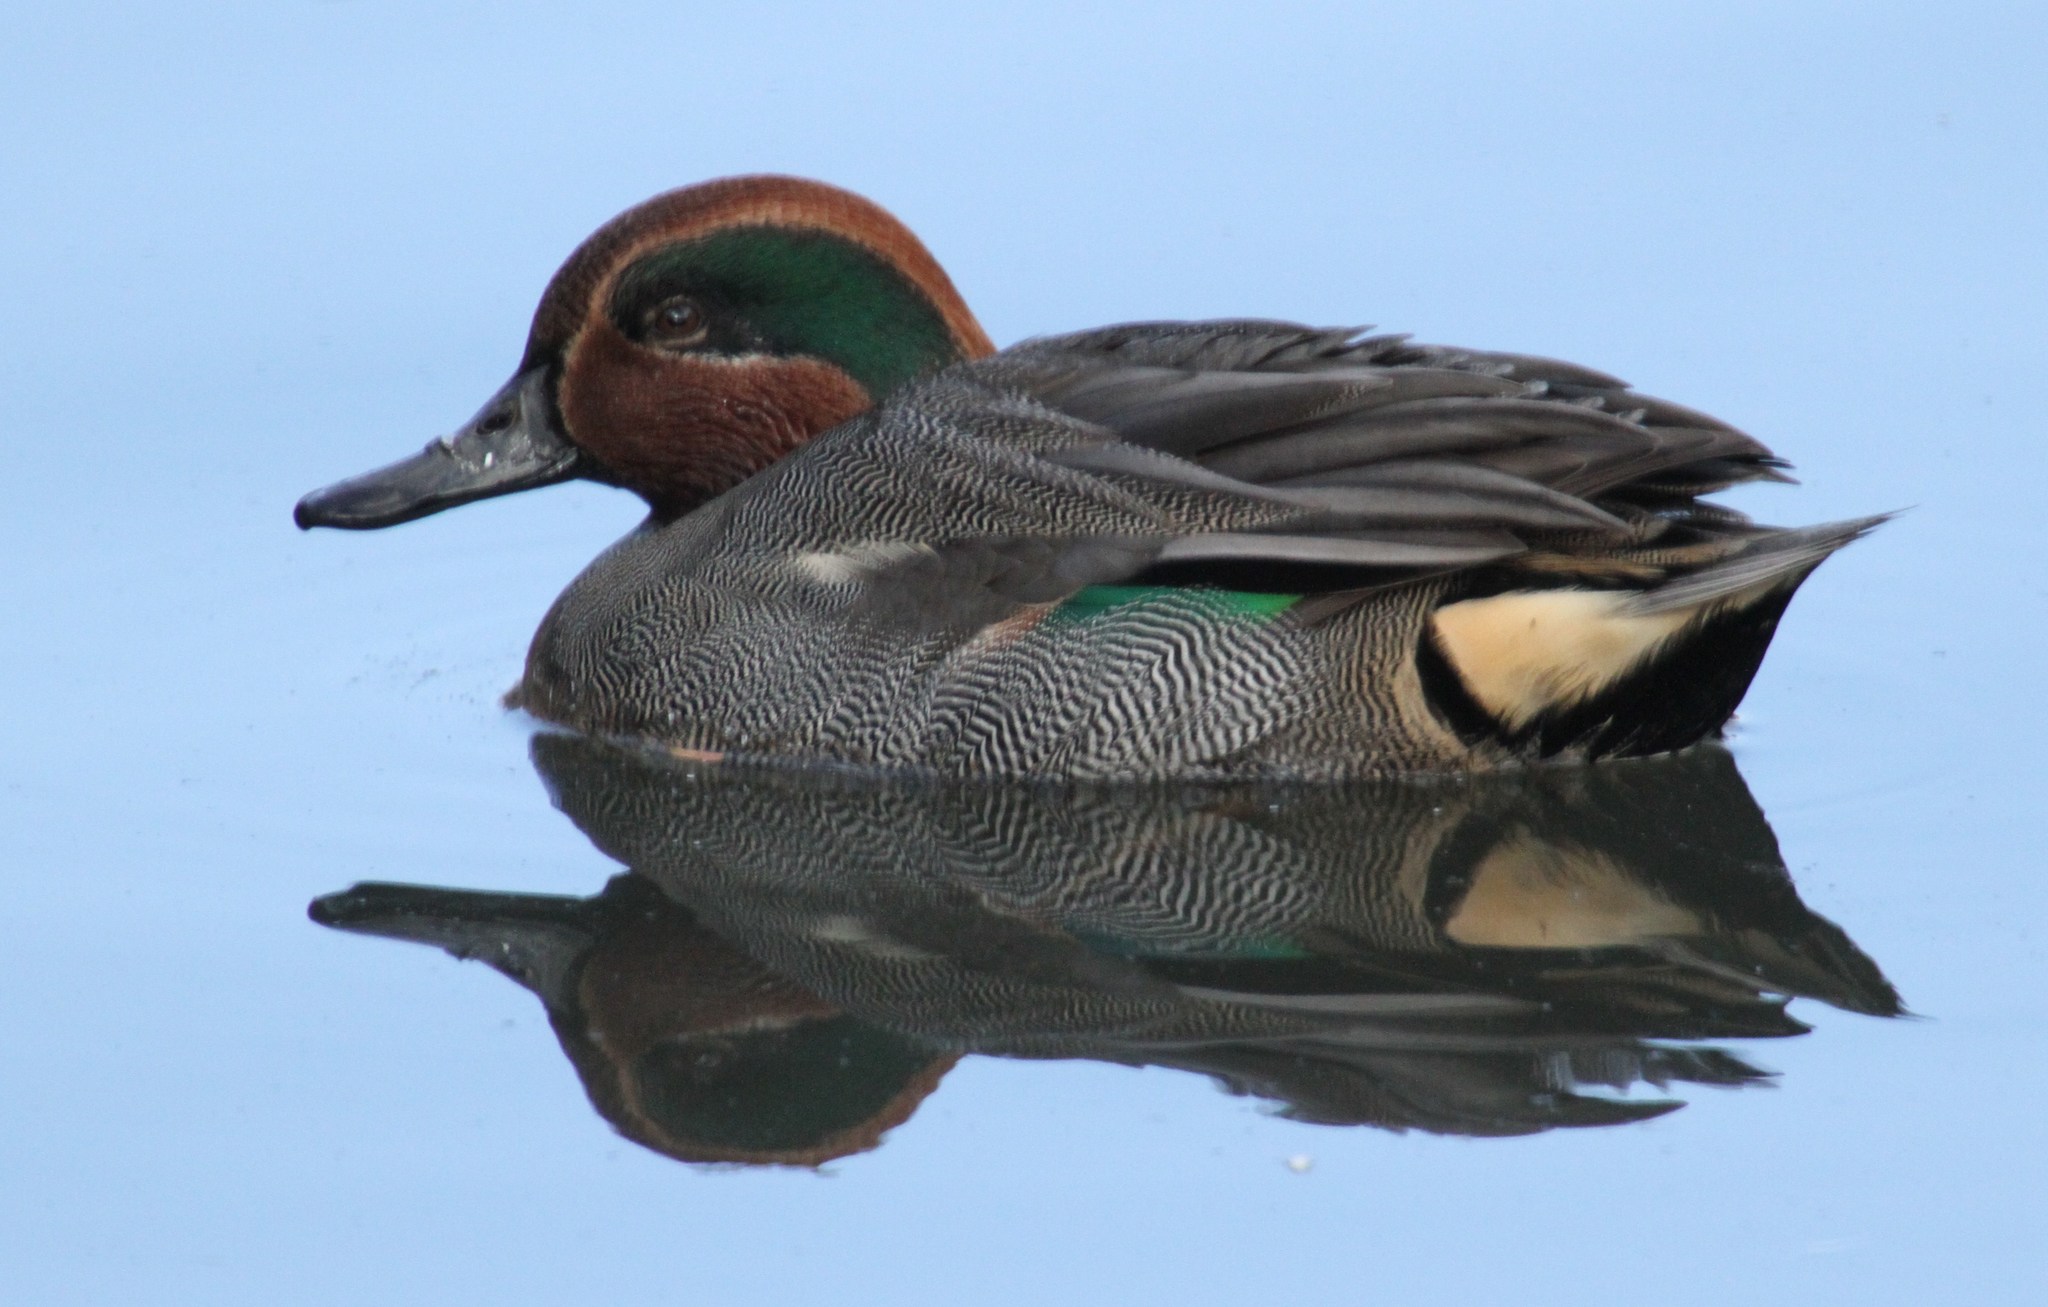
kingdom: Animalia
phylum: Chordata
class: Aves
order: Anseriformes
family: Anatidae
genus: Anas
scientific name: Anas crecca
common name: Eurasian teal
